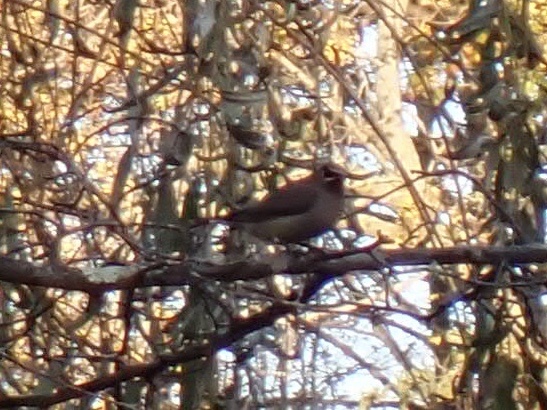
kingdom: Animalia
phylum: Chordata
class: Aves
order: Passeriformes
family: Bombycillidae
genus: Bombycilla
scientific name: Bombycilla cedrorum
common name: Cedar waxwing
